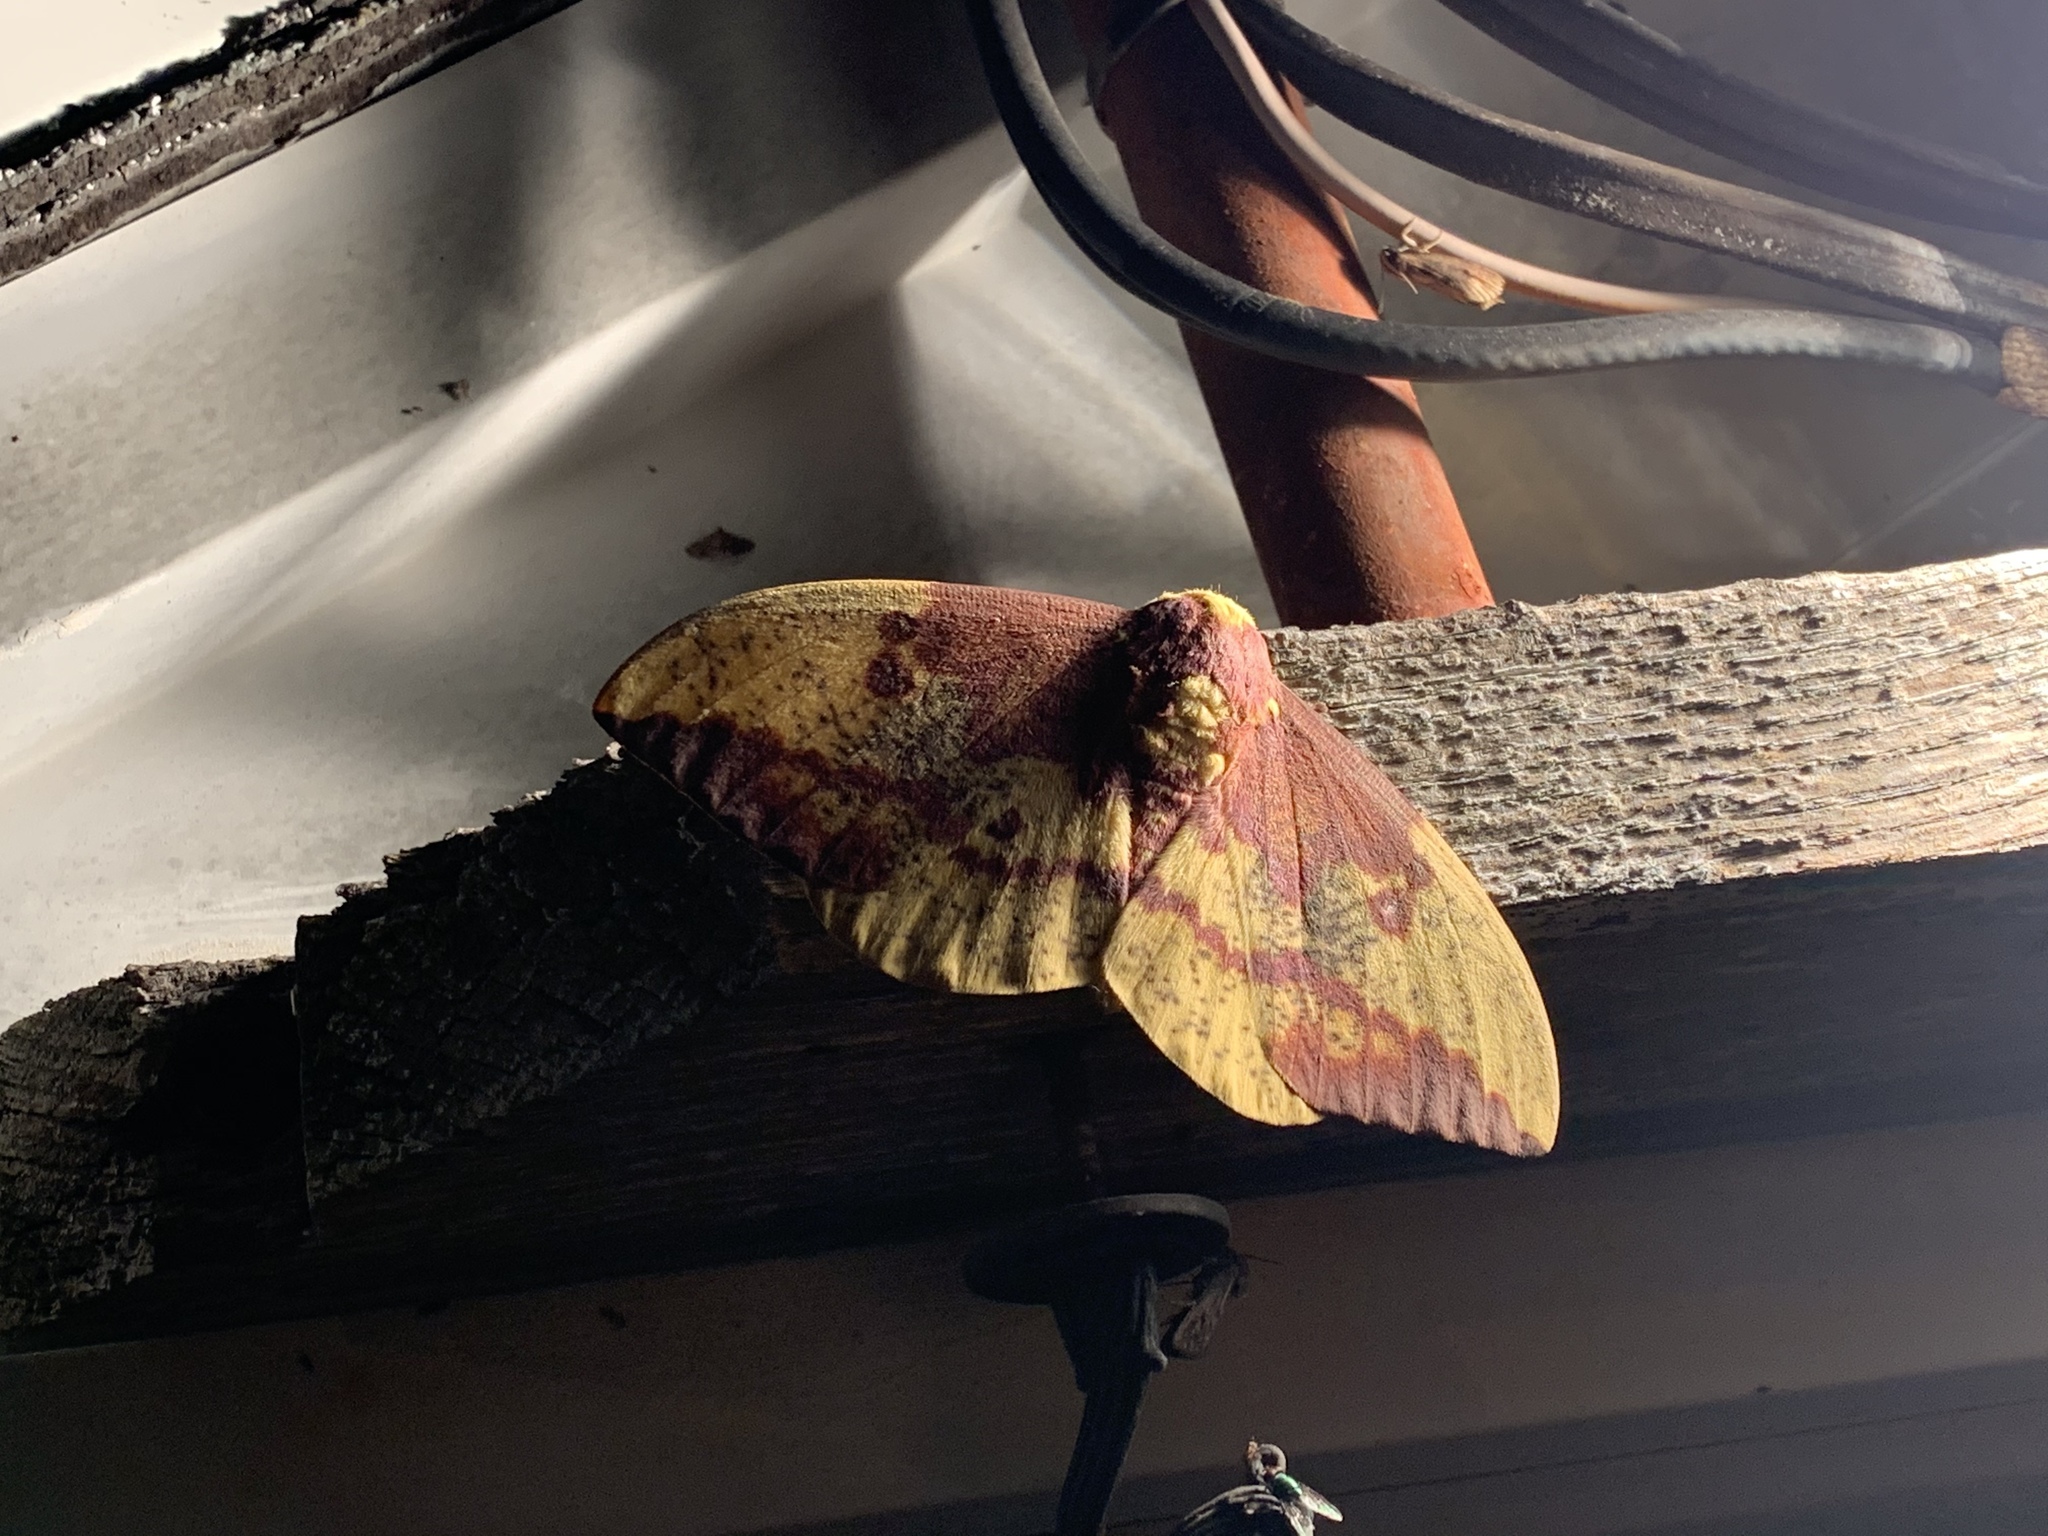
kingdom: Animalia
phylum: Arthropoda
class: Insecta
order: Lepidoptera
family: Saturniidae
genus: Eacles
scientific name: Eacles imperialis
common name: Imperial moth
